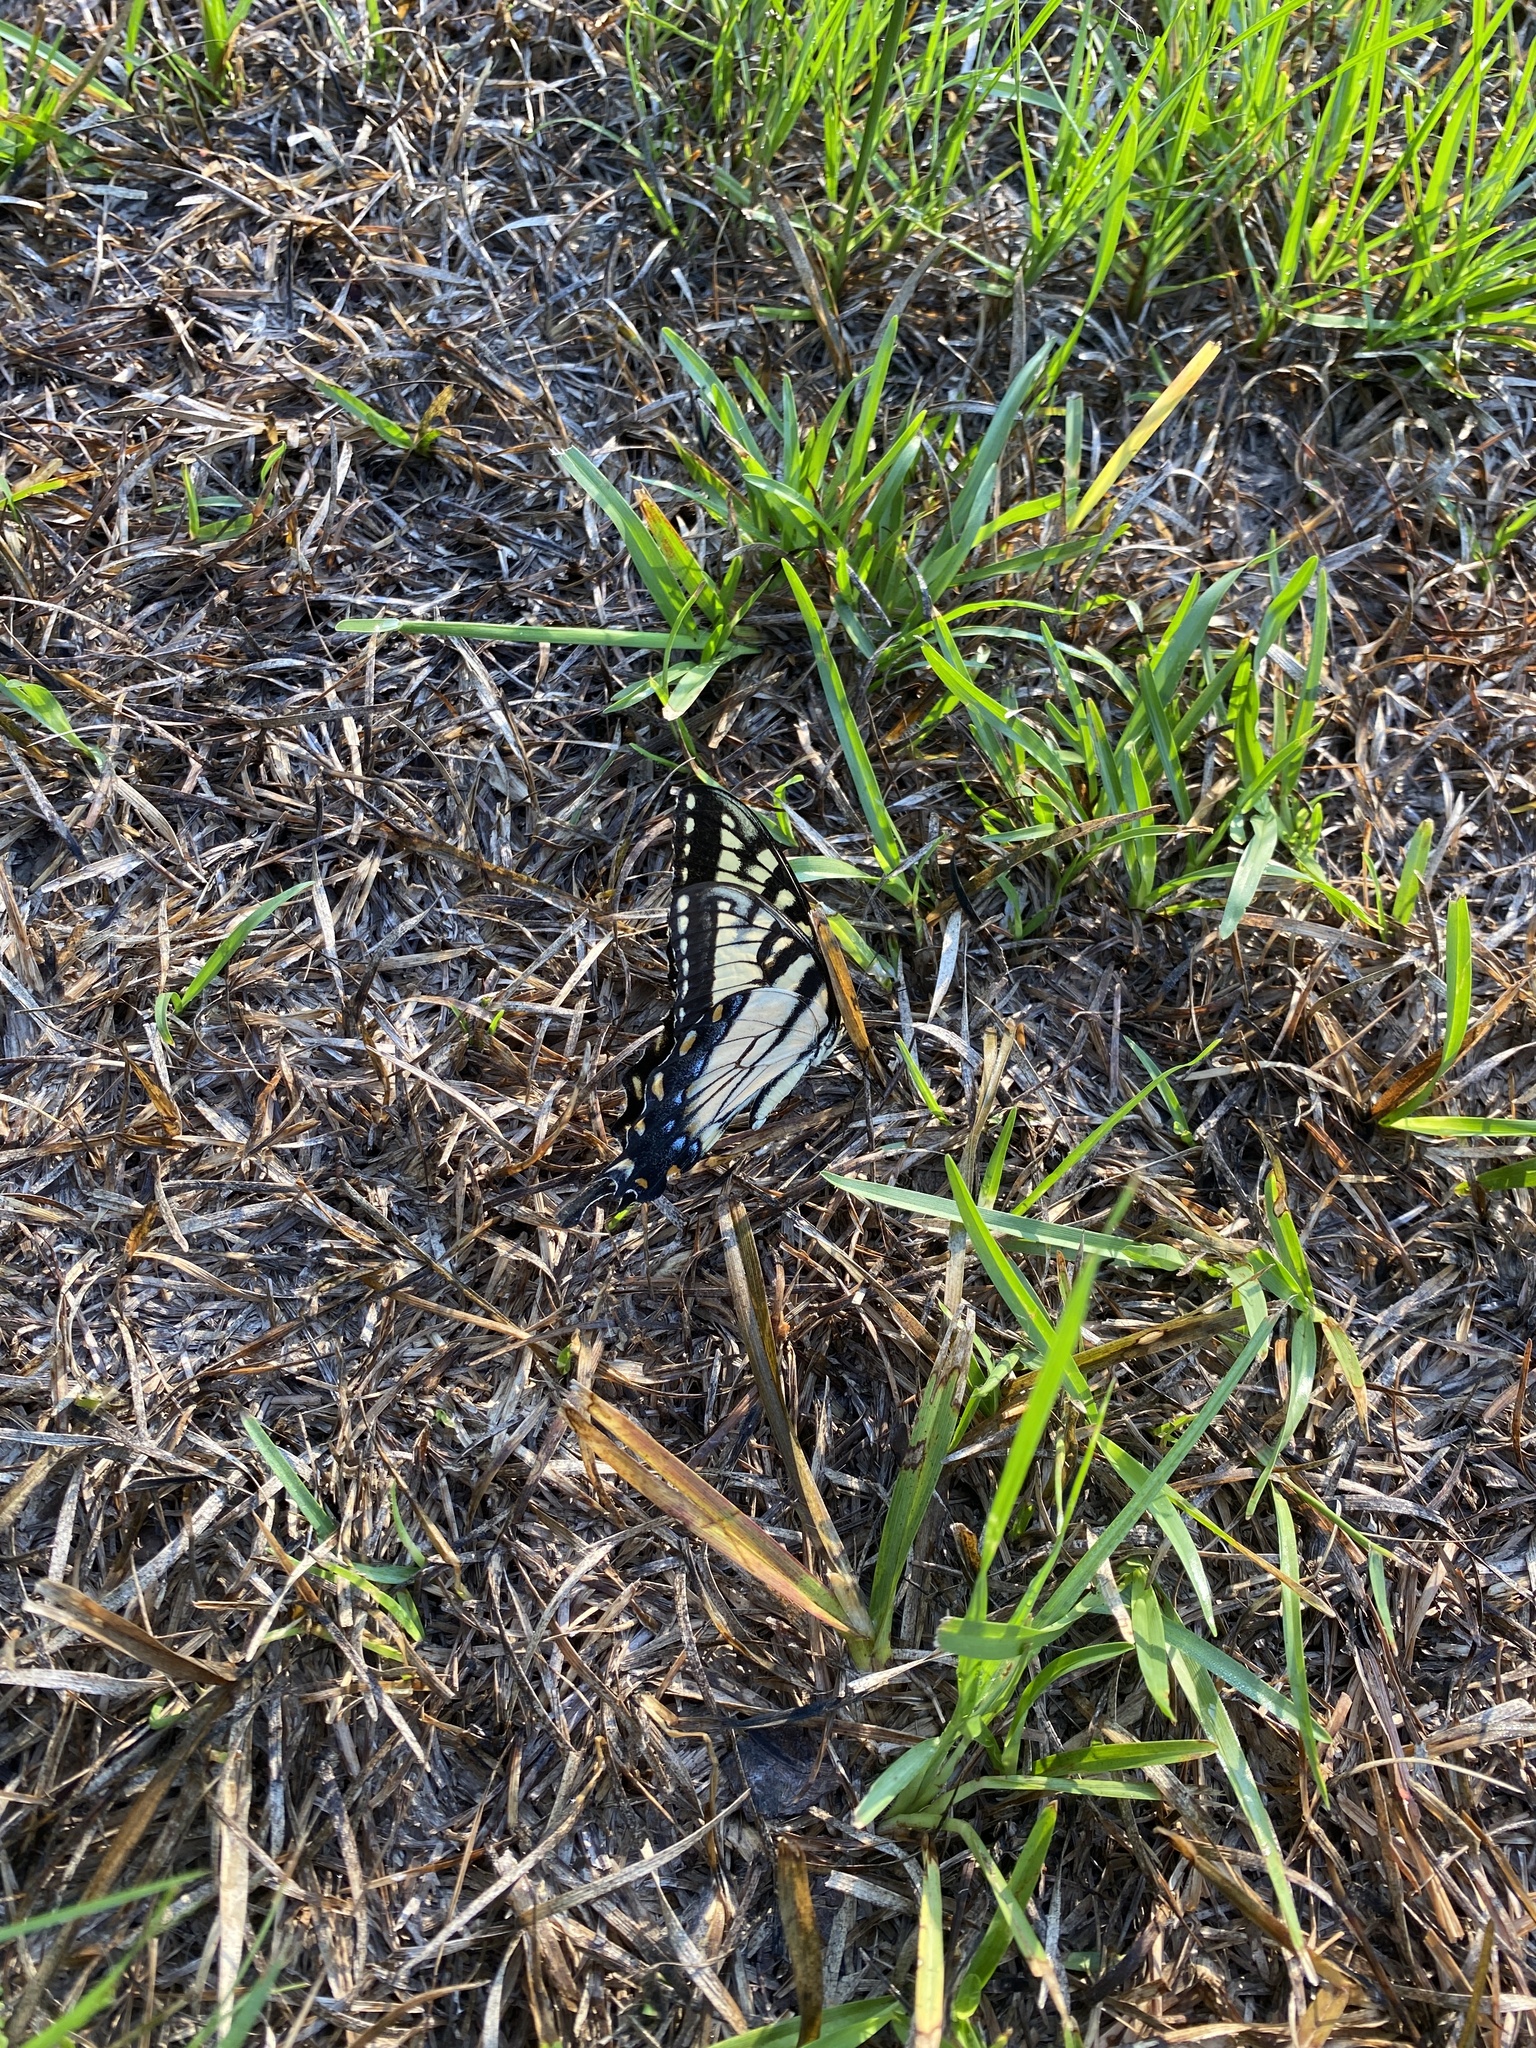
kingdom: Animalia
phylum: Arthropoda
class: Insecta
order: Lepidoptera
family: Papilionidae
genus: Papilio
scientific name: Papilio glaucus
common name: Tiger swallowtail
